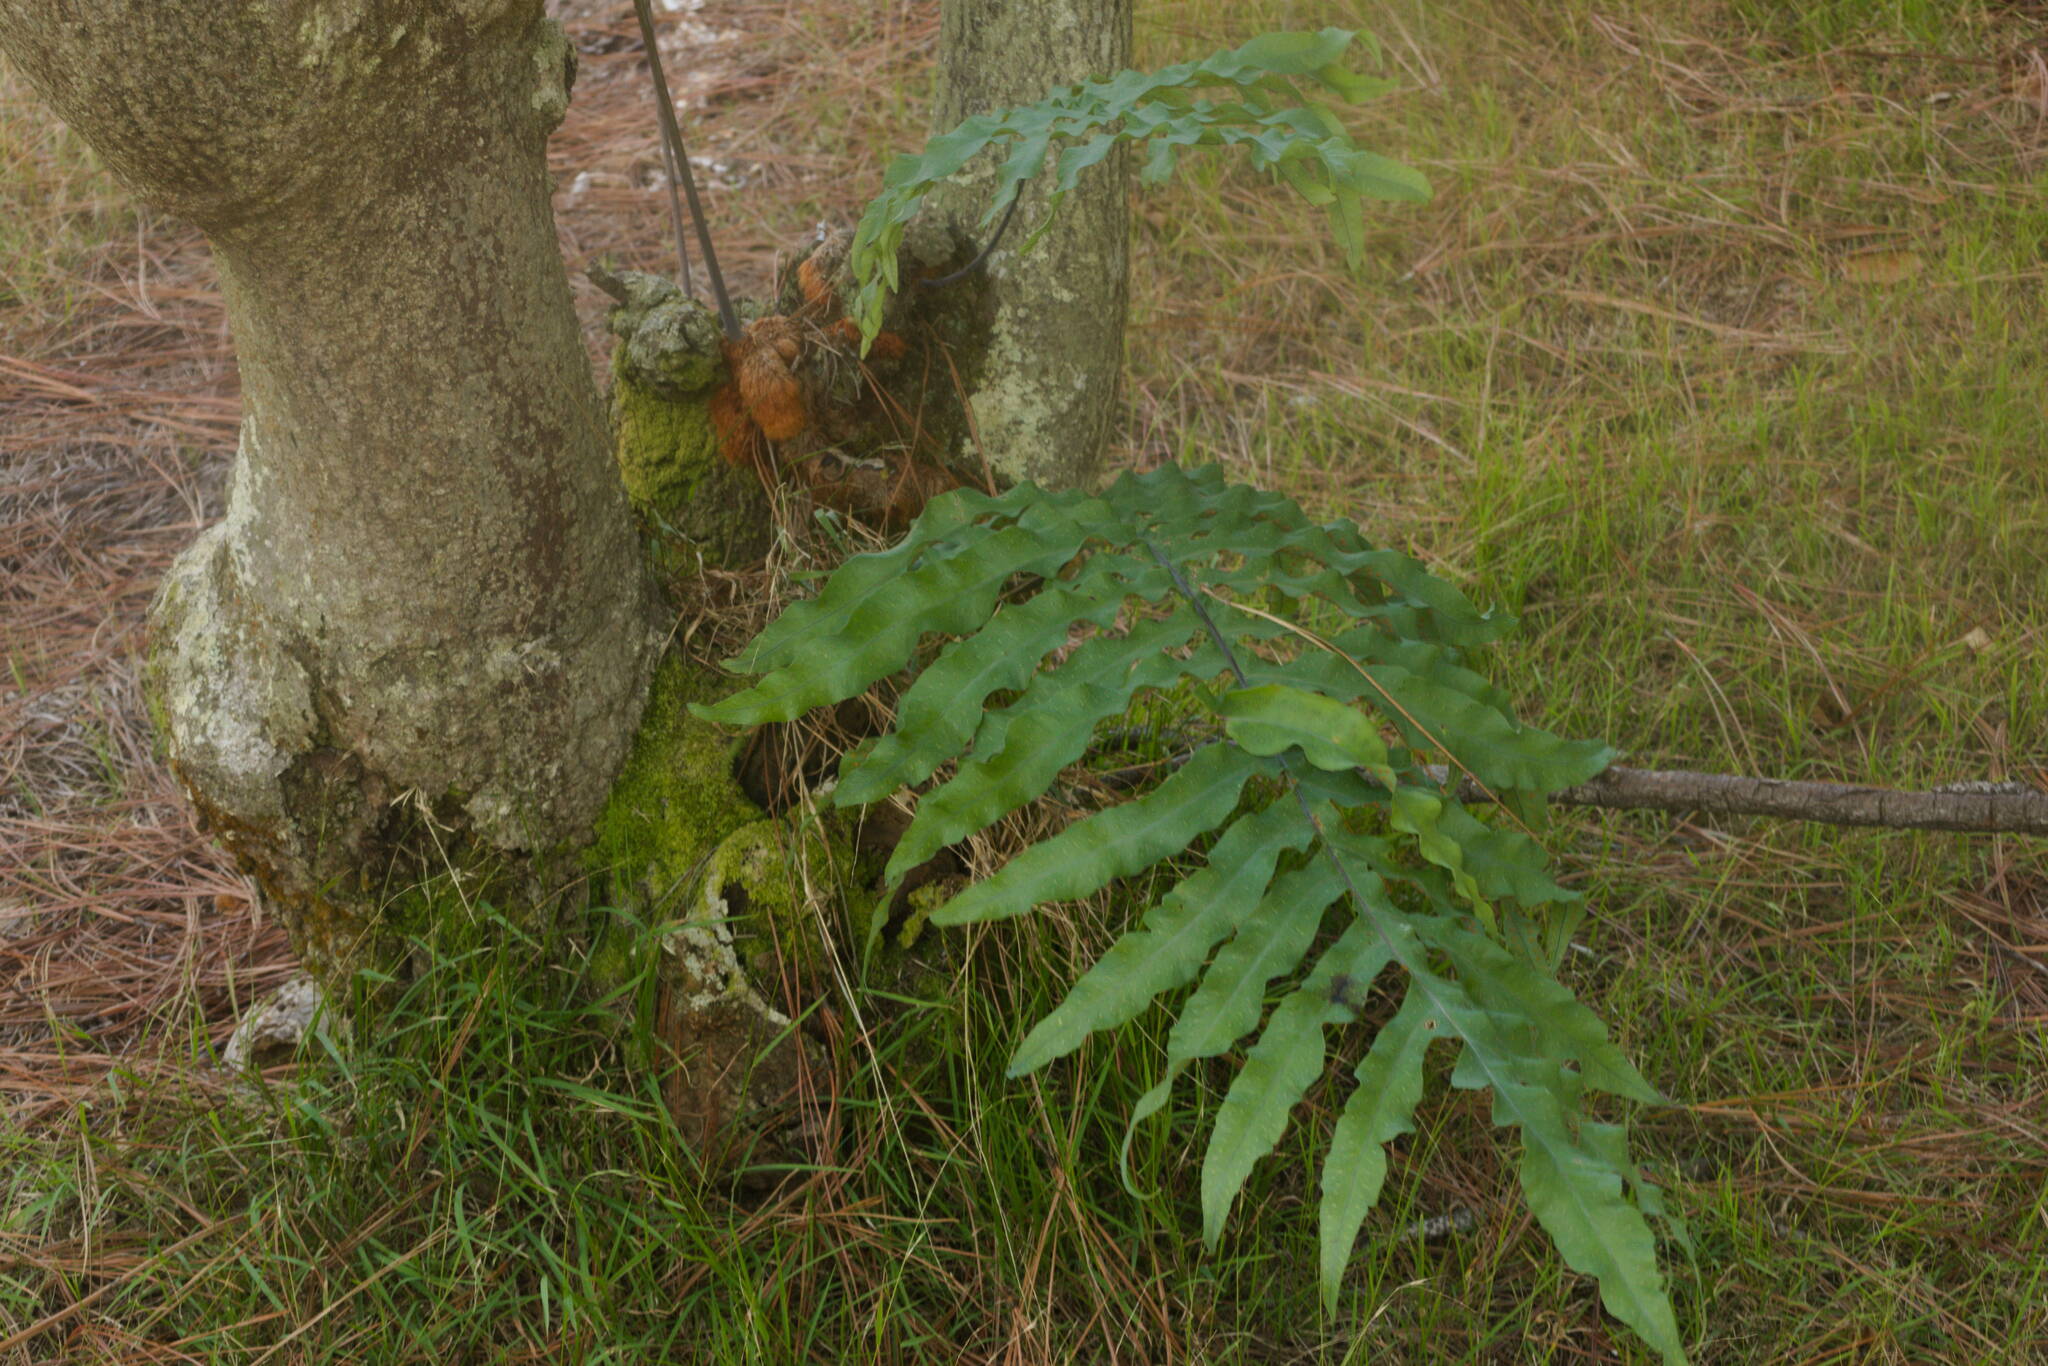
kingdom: Plantae
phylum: Tracheophyta
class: Polypodiopsida
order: Polypodiales
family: Polypodiaceae
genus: Phlebodium
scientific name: Phlebodium aureum
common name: Gold-foot fern
